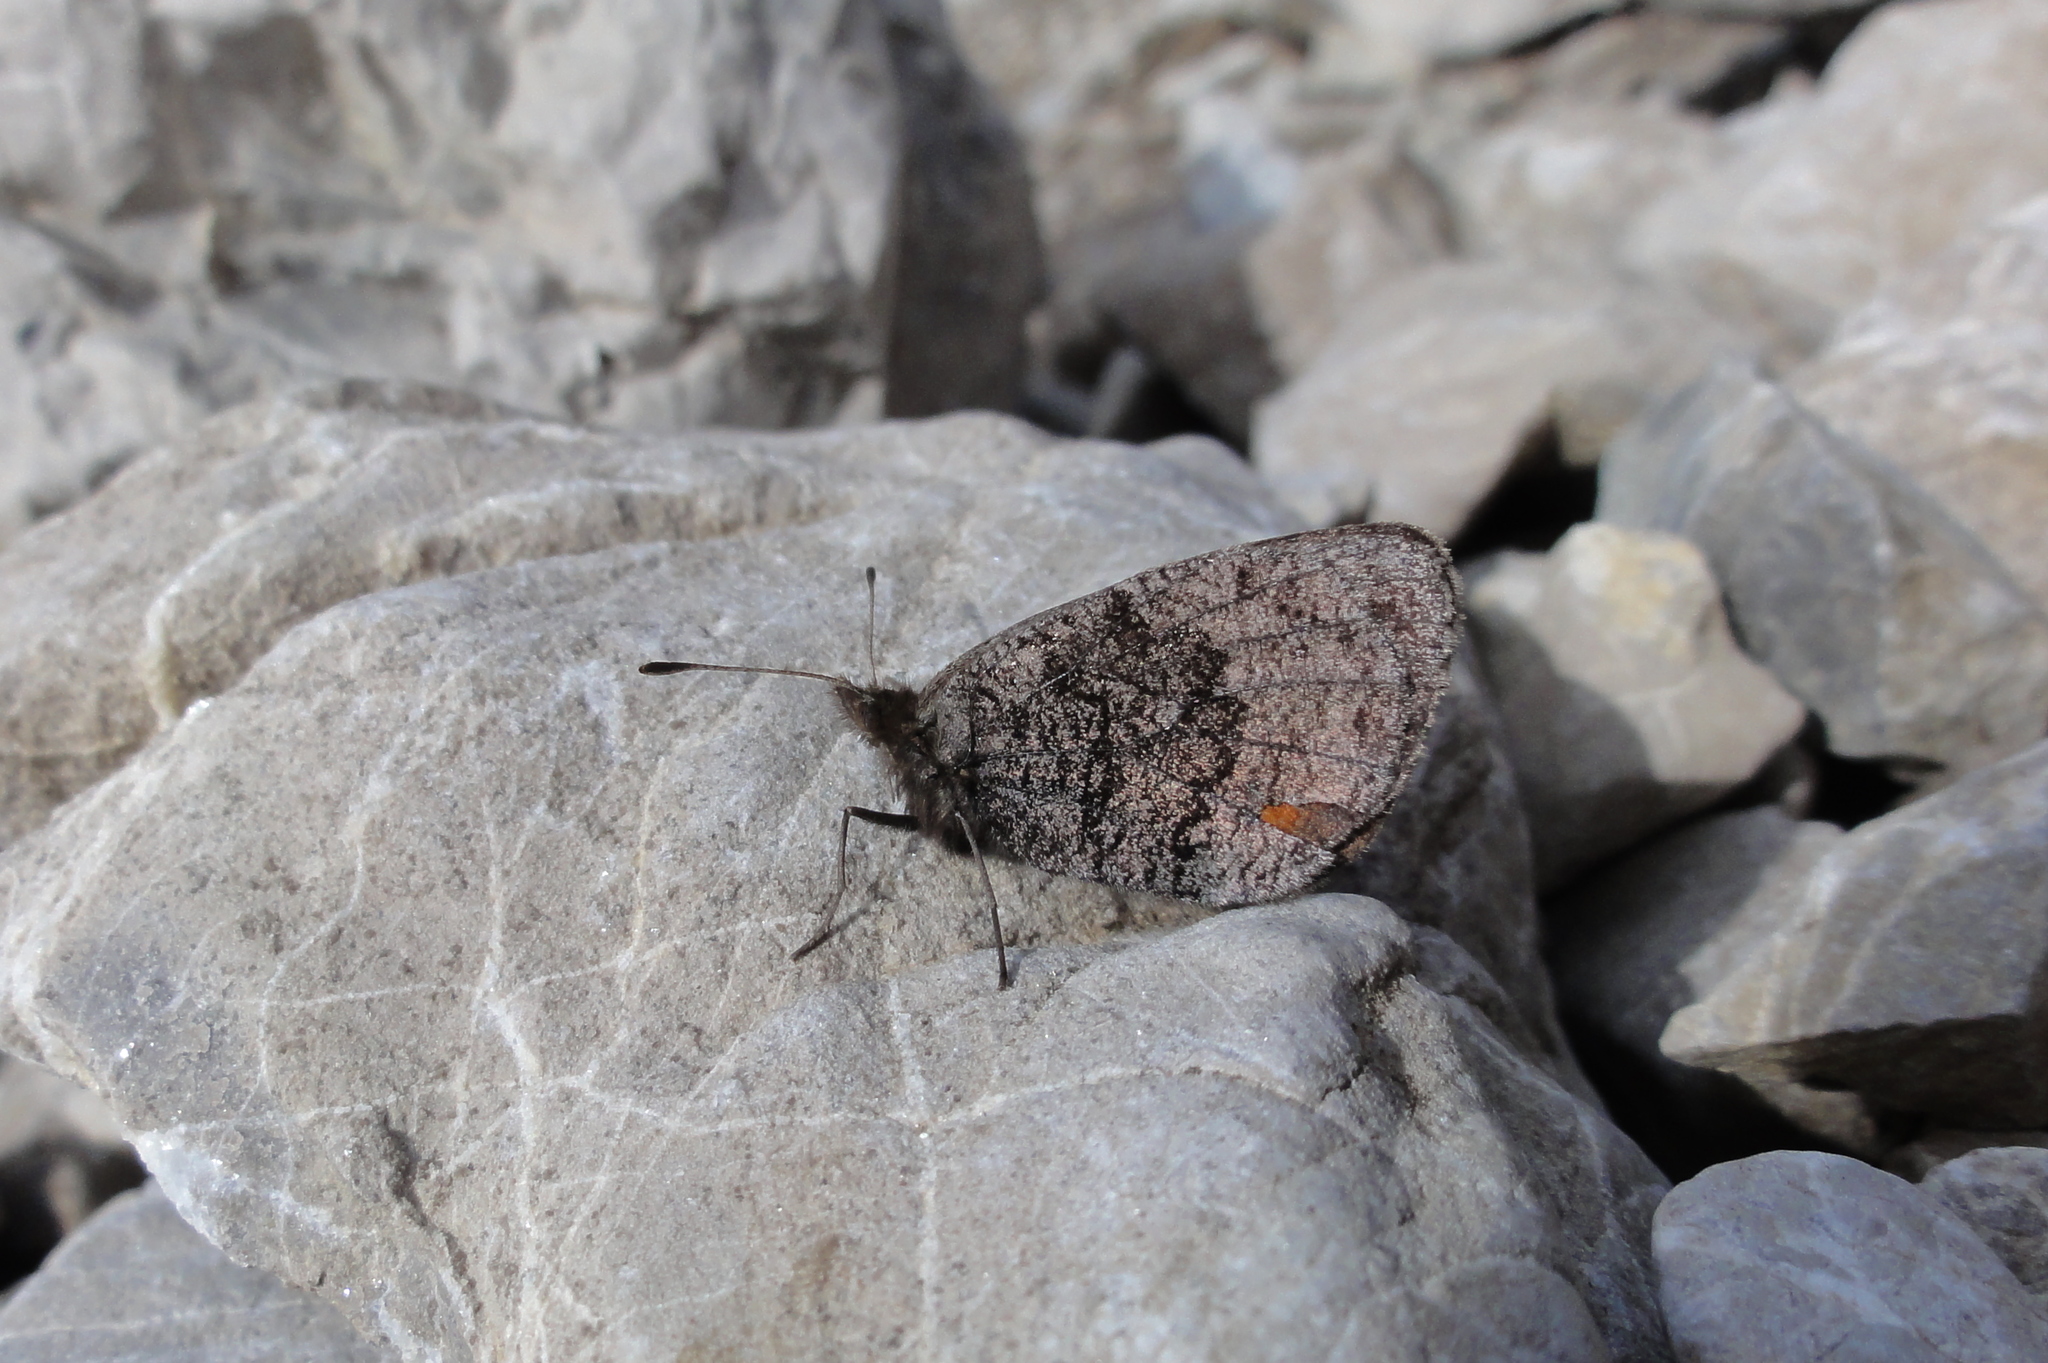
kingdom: Animalia
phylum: Arthropoda
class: Insecta
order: Lepidoptera
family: Nymphalidae
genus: Erebia
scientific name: Erebia pandrose
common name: Dewy ringlet
